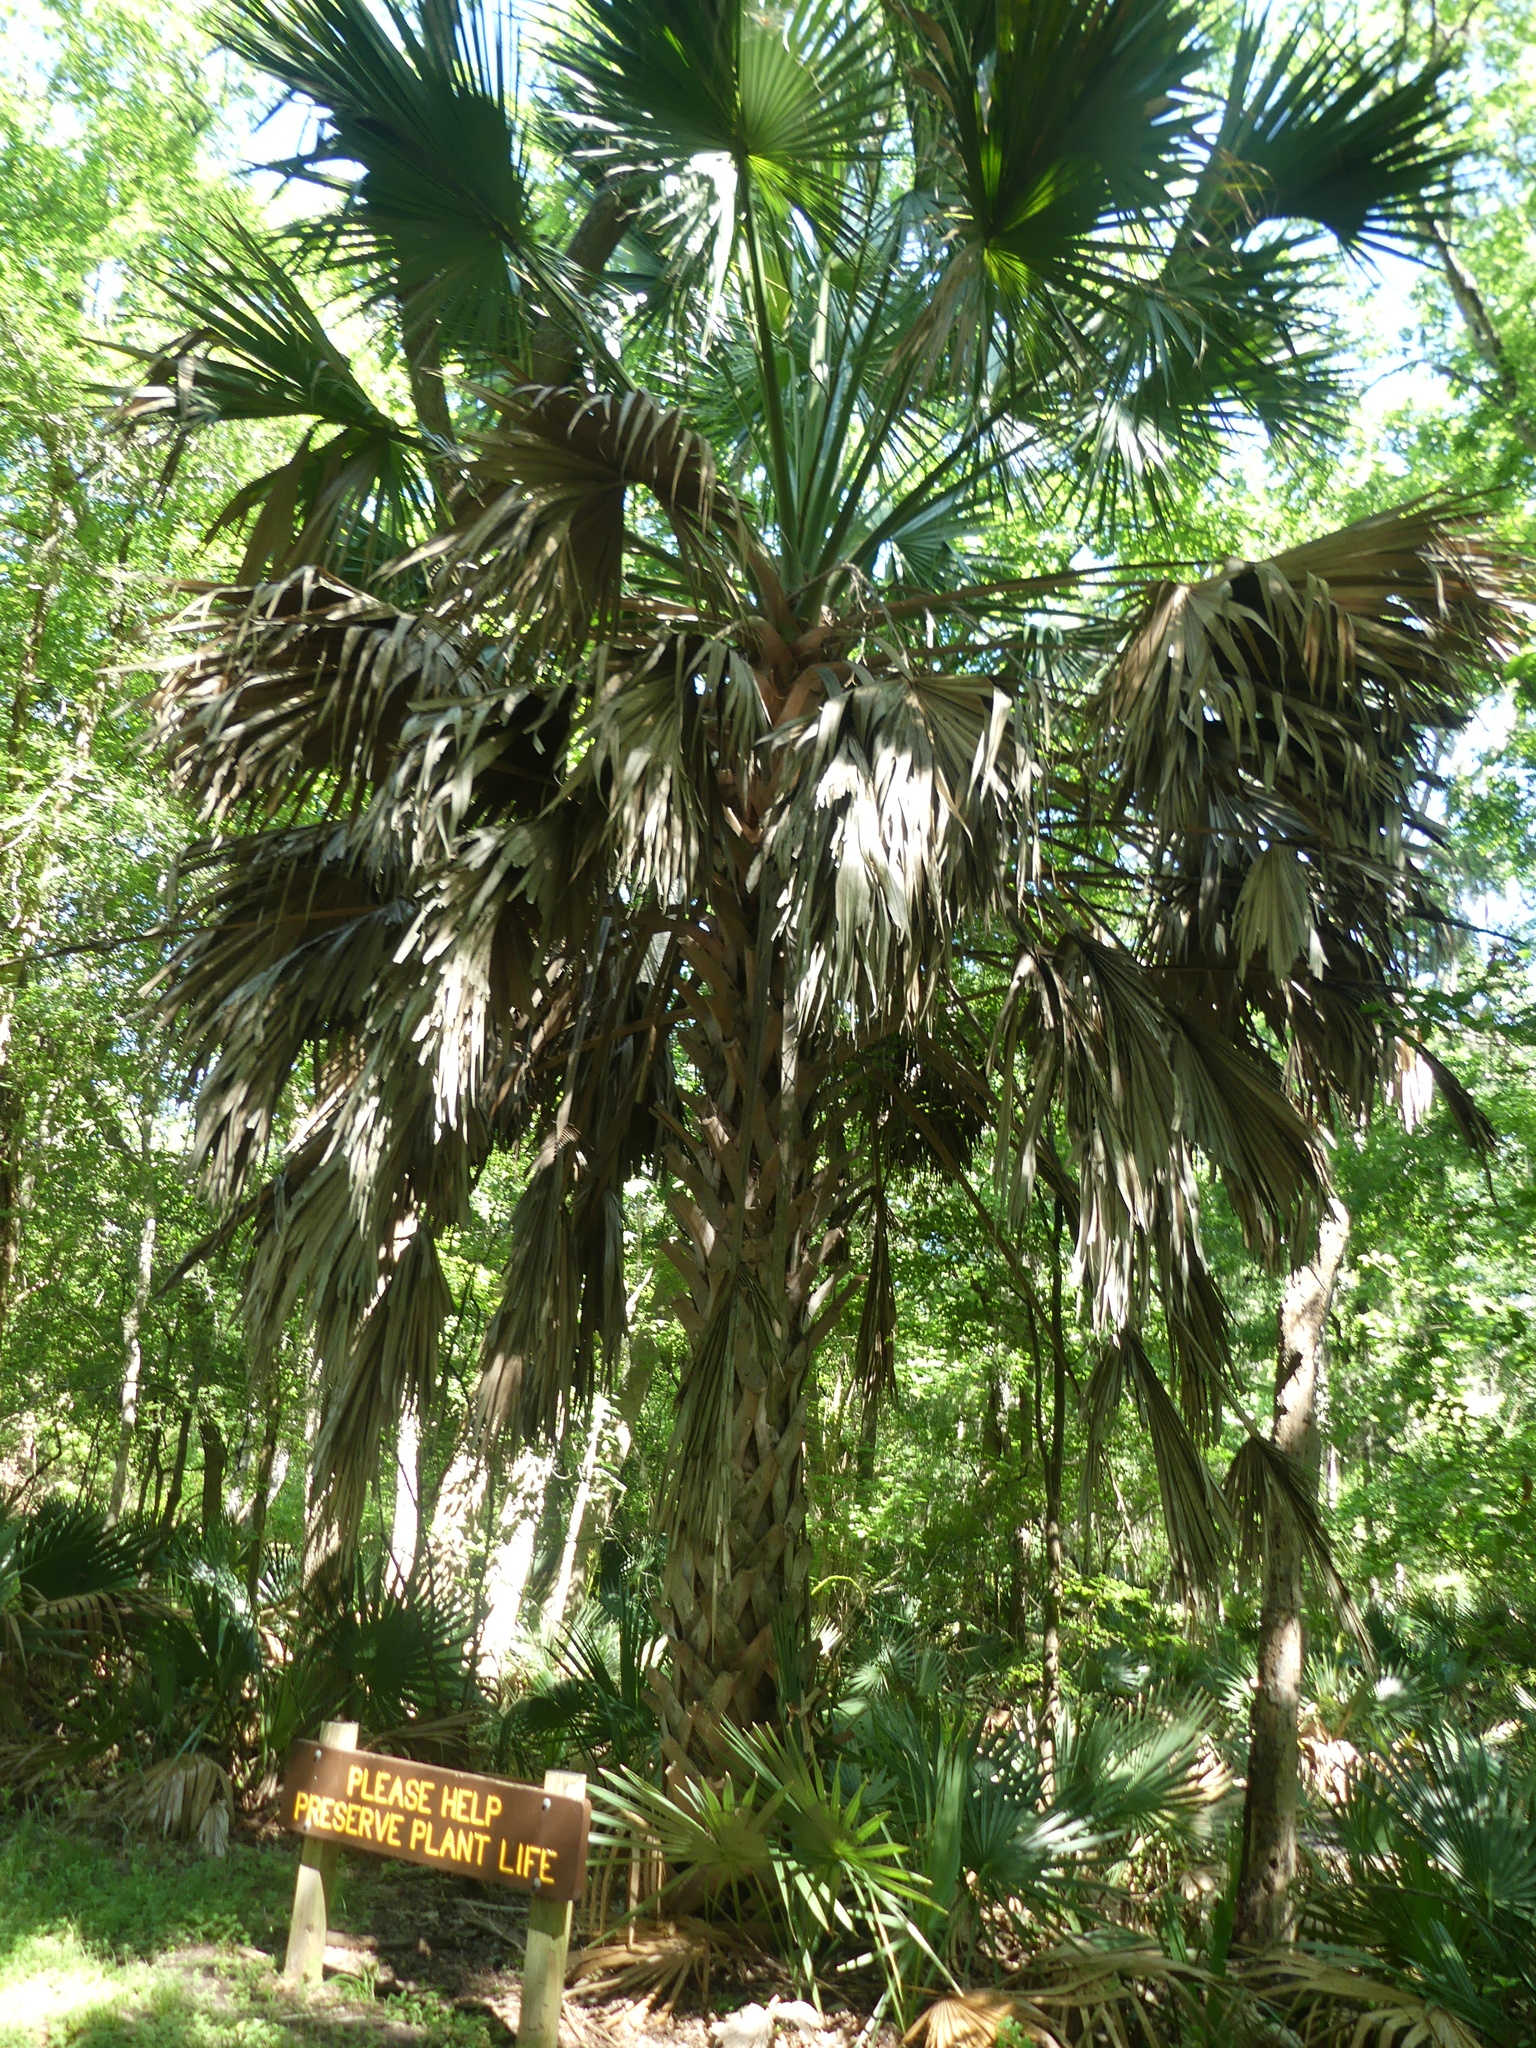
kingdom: Plantae
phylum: Tracheophyta
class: Liliopsida
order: Arecales
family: Arecaceae
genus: Sabal
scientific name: Sabal mexicana
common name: Texas palmetto
